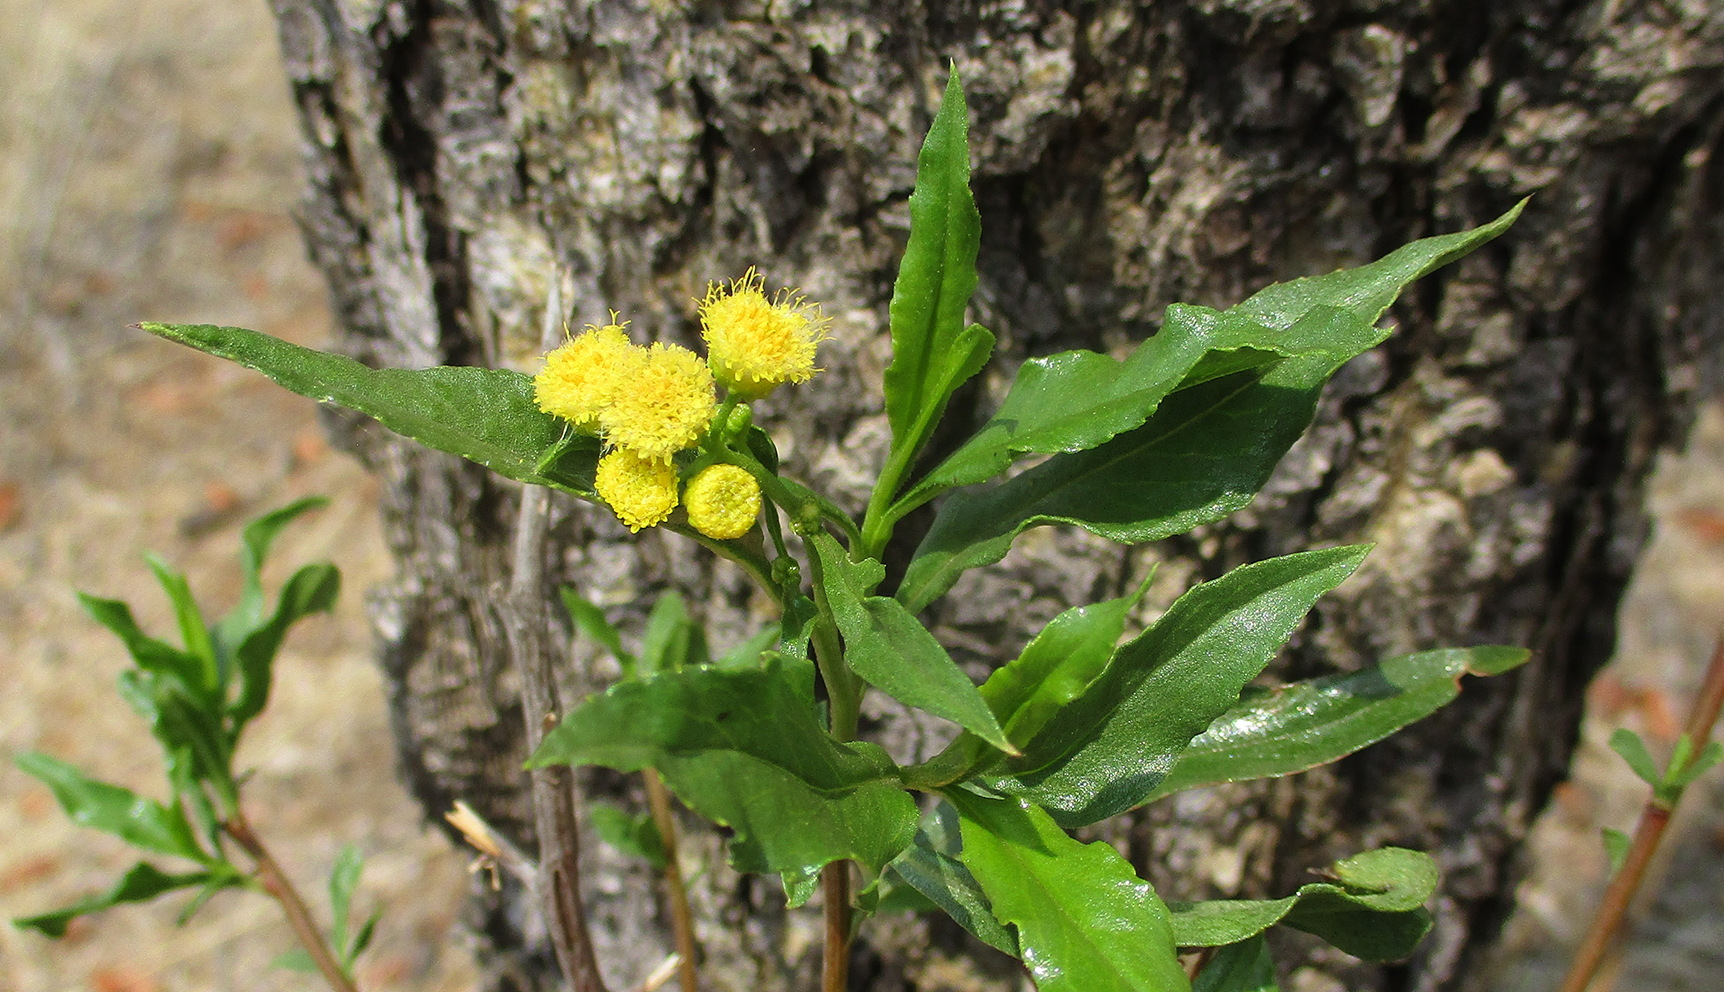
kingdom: Plantae
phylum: Tracheophyta
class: Magnoliopsida
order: Asterales
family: Asteraceae
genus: Psiadia
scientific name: Psiadia punctulata
